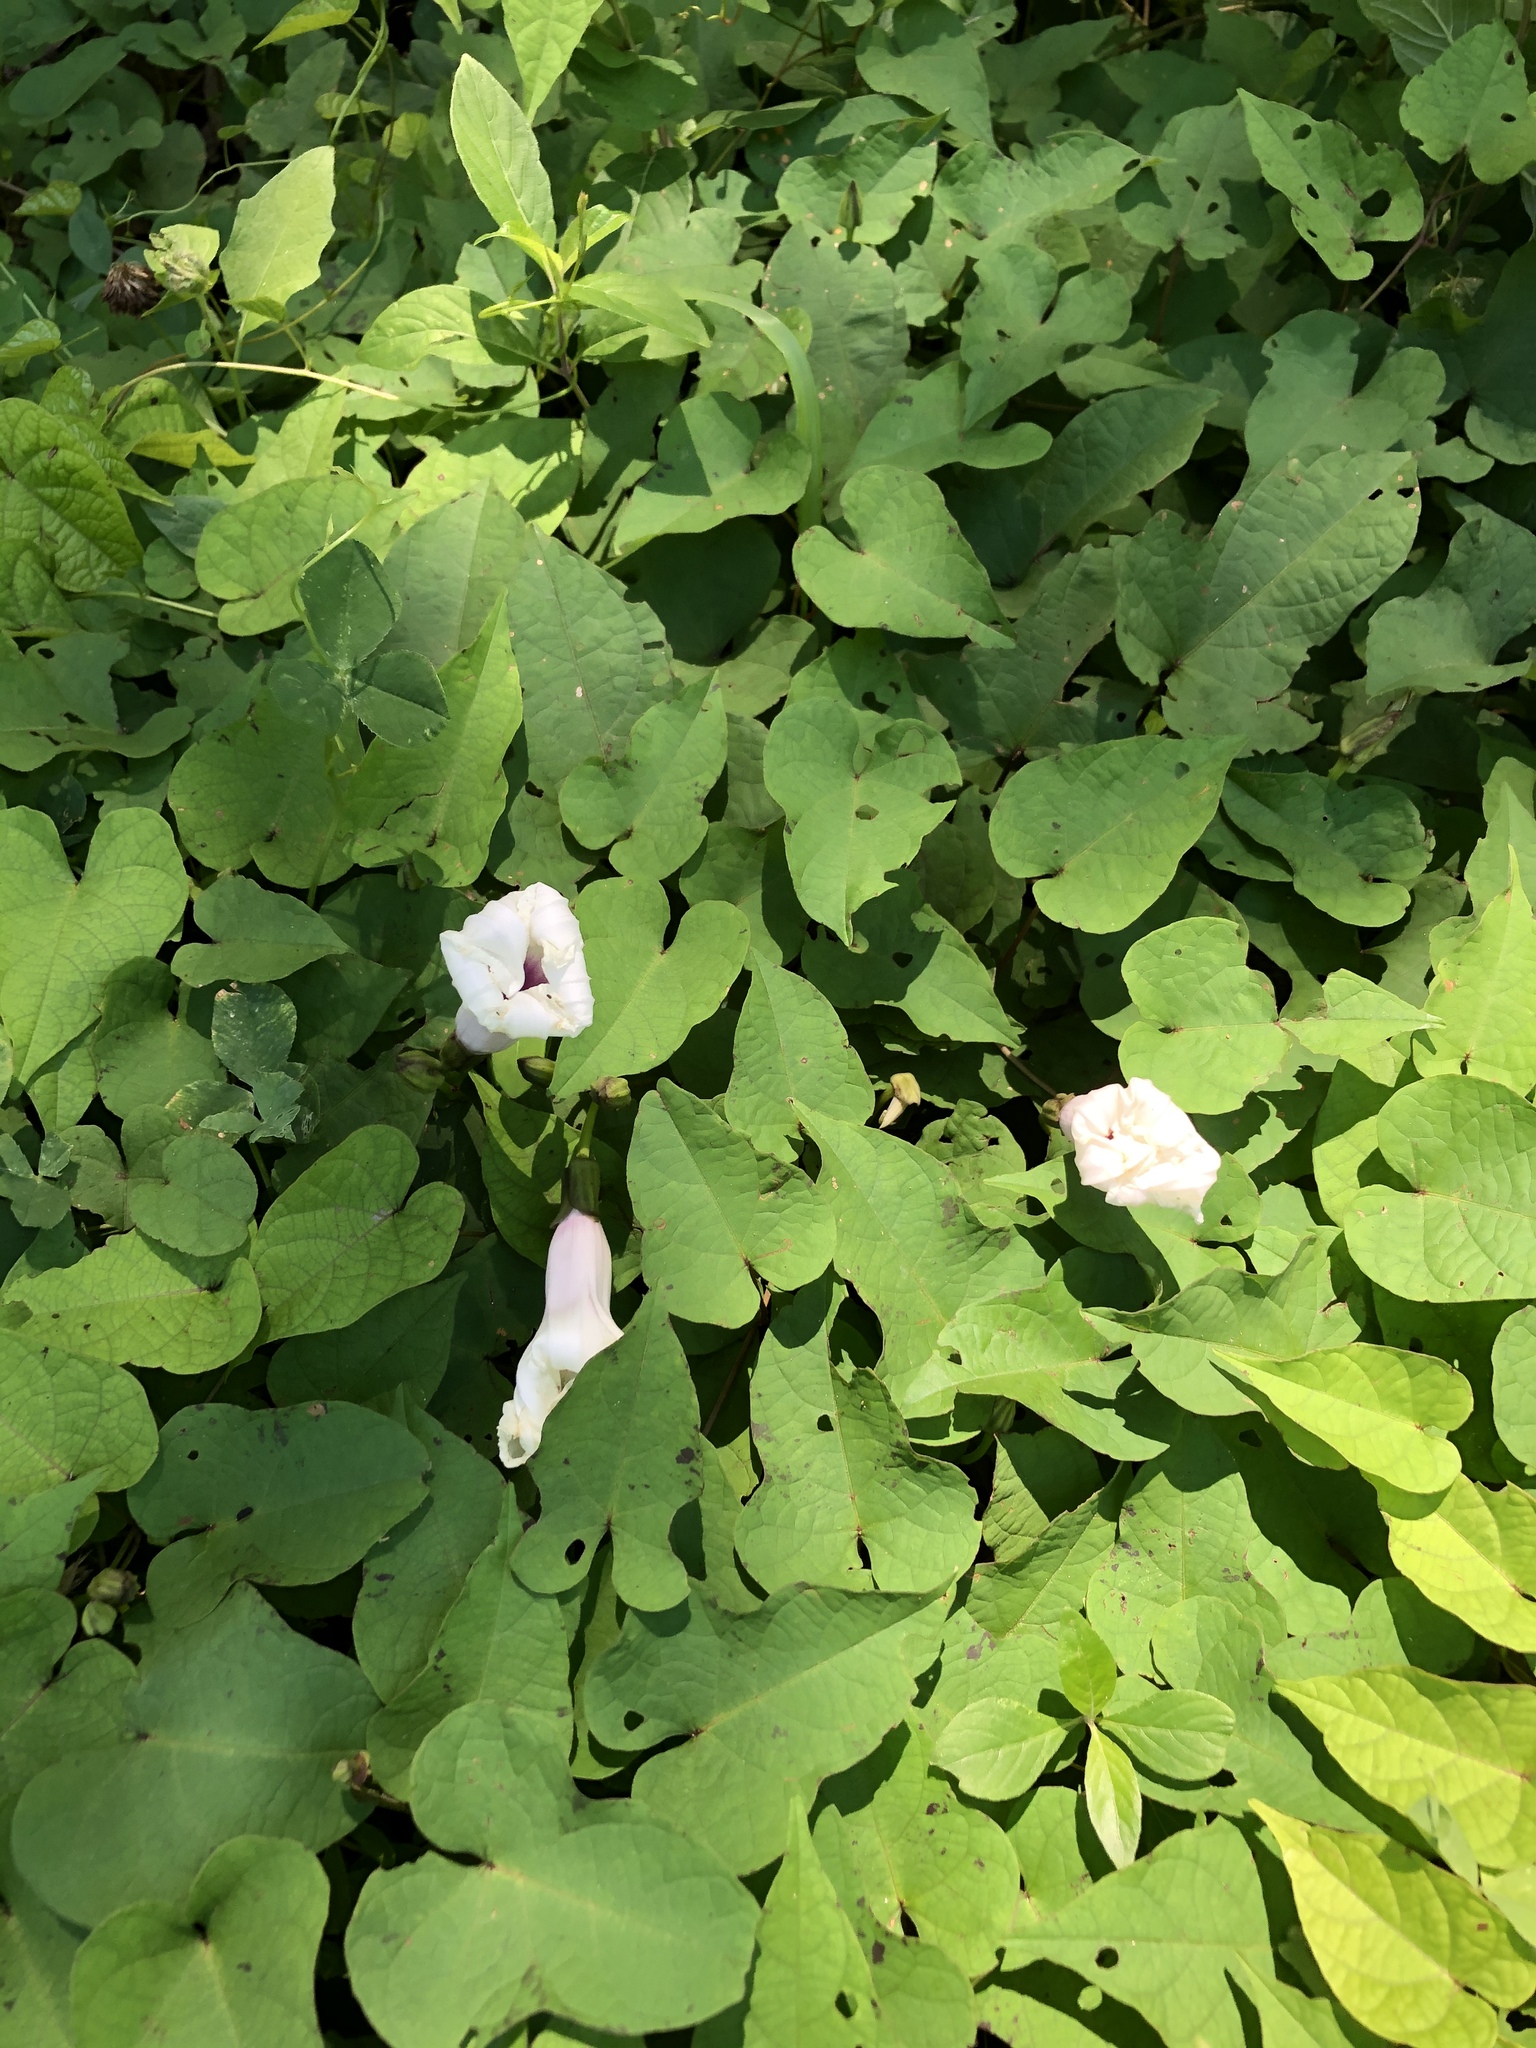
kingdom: Plantae
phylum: Tracheophyta
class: Magnoliopsida
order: Solanales
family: Convolvulaceae
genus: Ipomoea
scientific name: Ipomoea pandurata
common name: Man-of-the-earth
